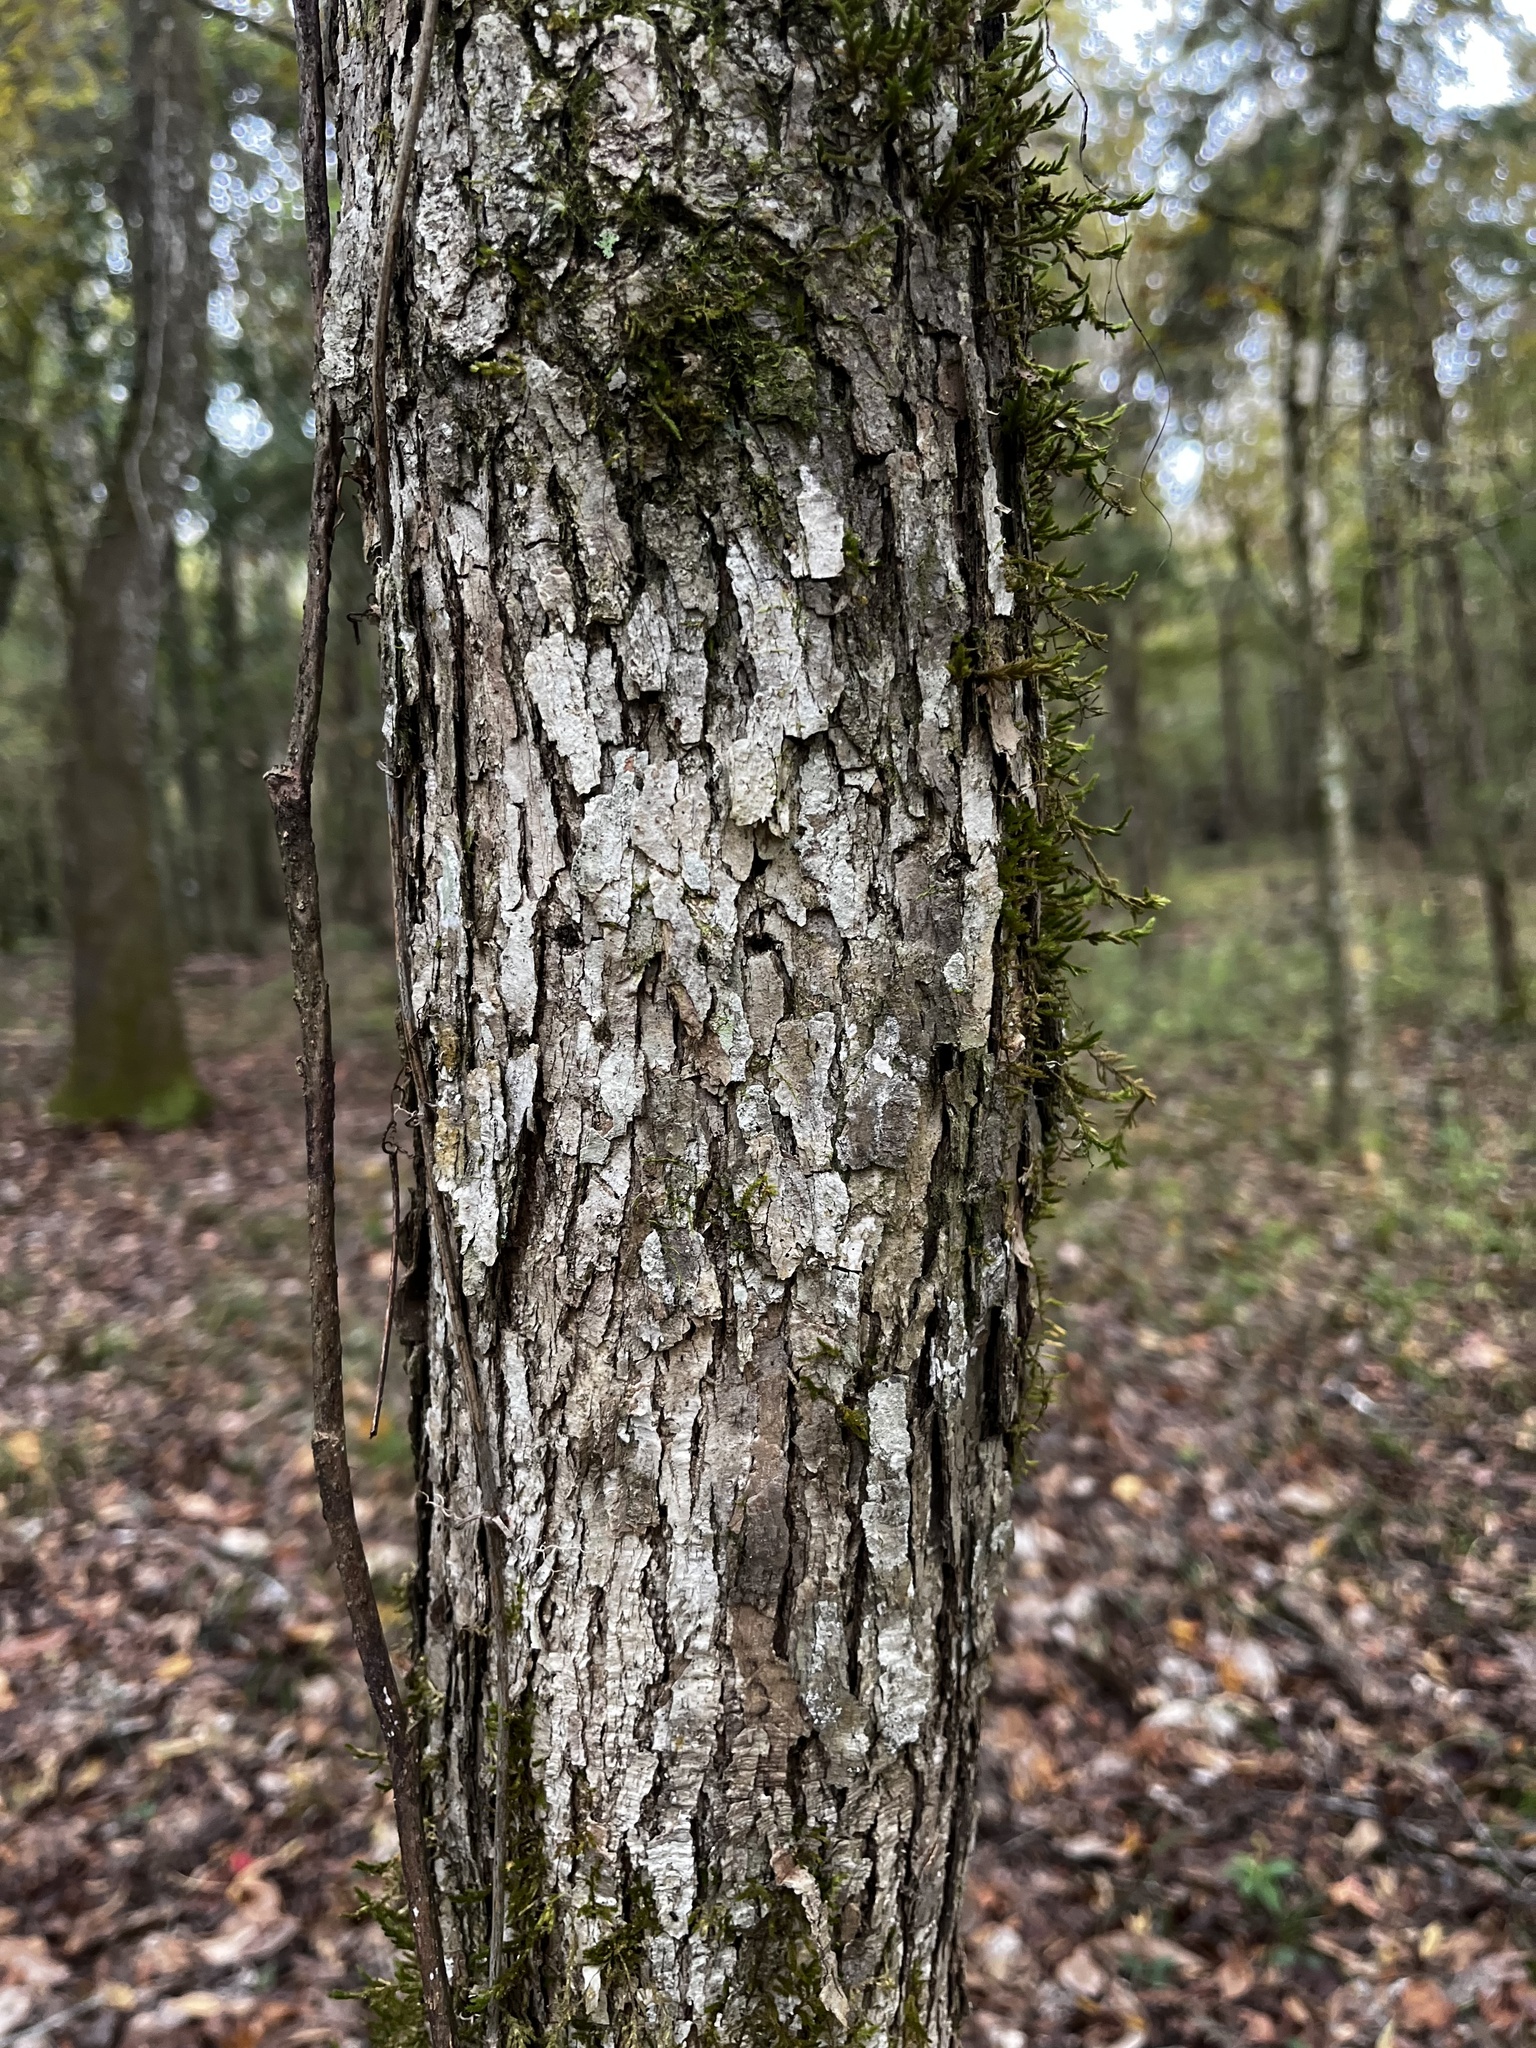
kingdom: Plantae
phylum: Tracheophyta
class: Magnoliopsida
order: Fagales
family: Fagaceae
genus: Quercus
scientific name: Quercus michauxii
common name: Swamp chestnut oak
